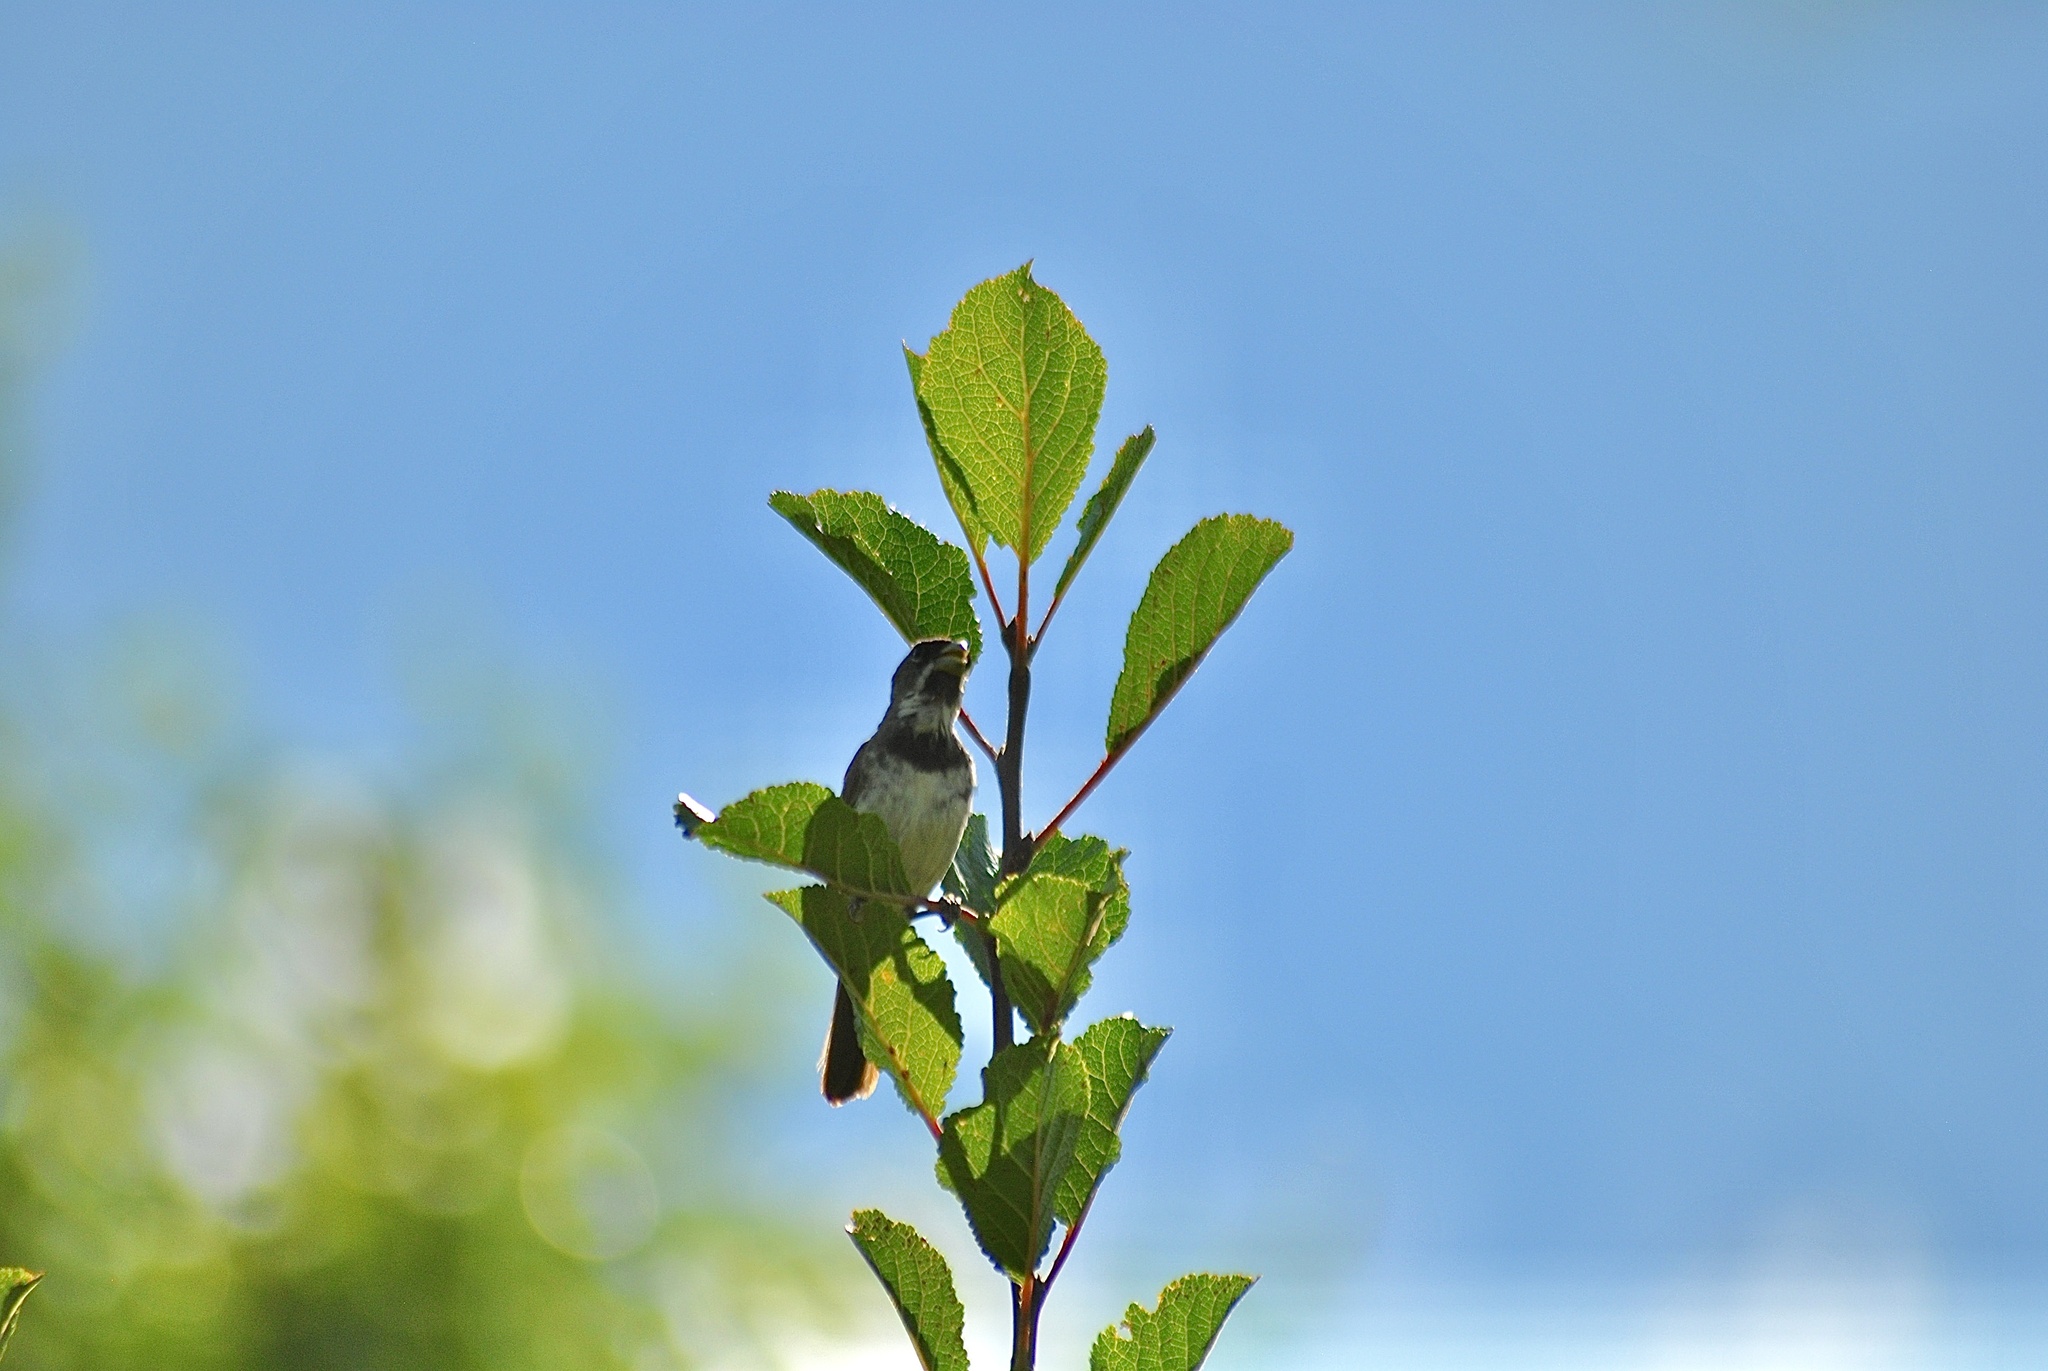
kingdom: Animalia
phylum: Chordata
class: Aves
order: Passeriformes
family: Thraupidae
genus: Sporophila
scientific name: Sporophila caerulescens
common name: Double-collared seedeater
